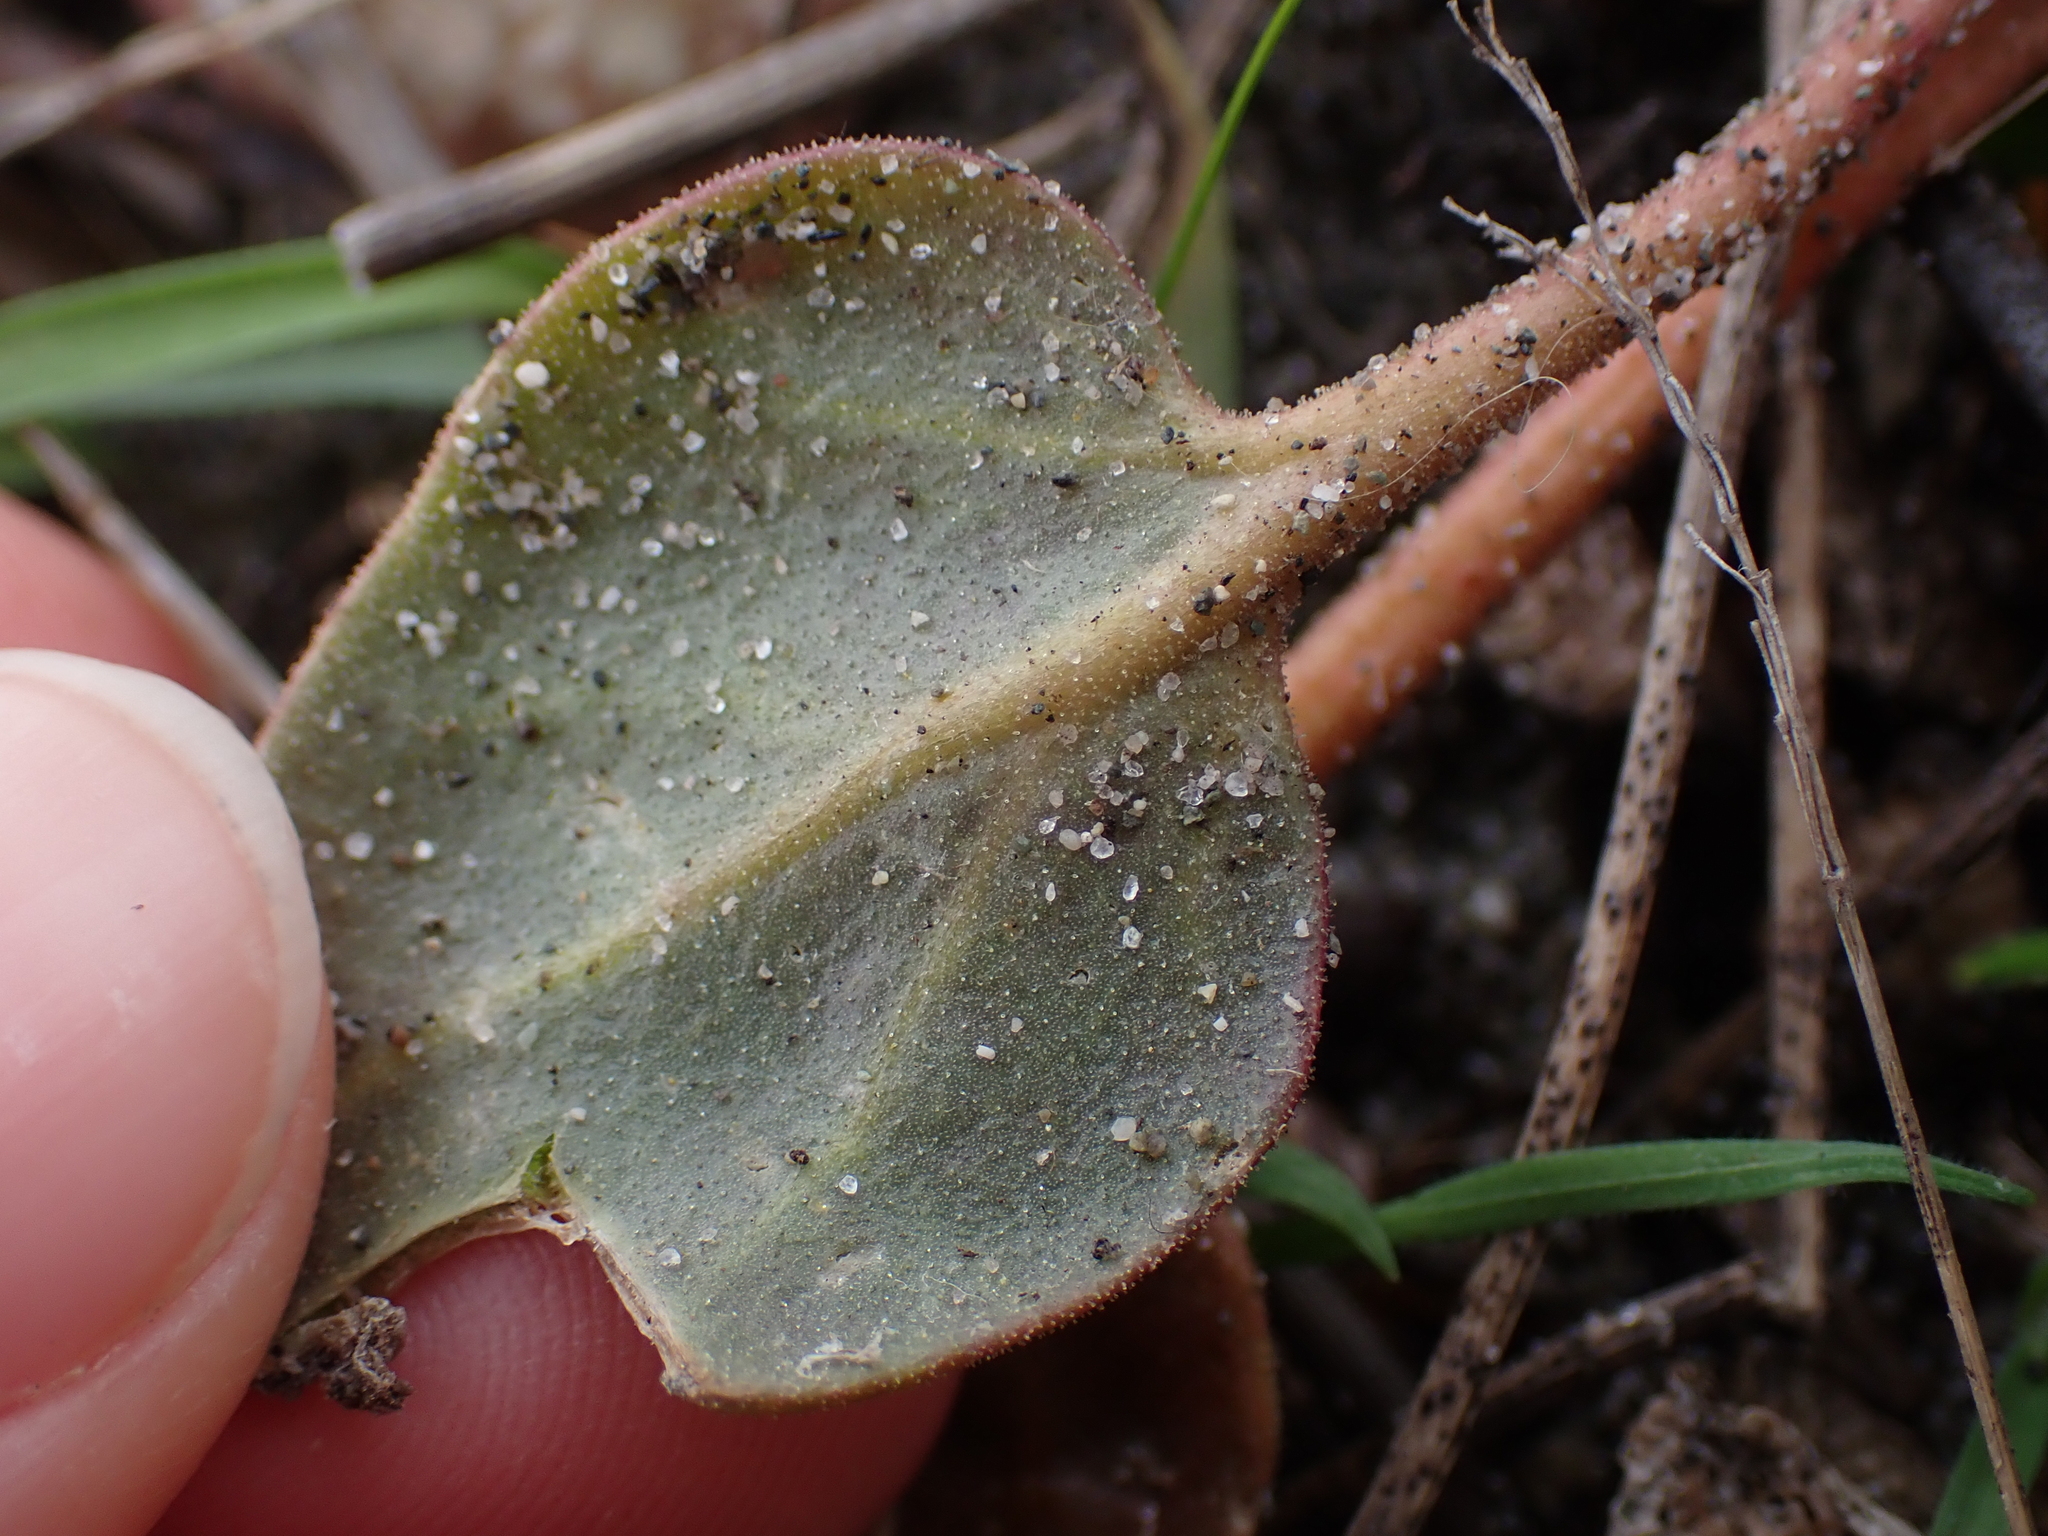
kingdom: Plantae
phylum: Tracheophyta
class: Magnoliopsida
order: Caryophyllales
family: Nyctaginaceae
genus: Abronia
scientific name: Abronia latifolia
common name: Yellow sand-verbena
